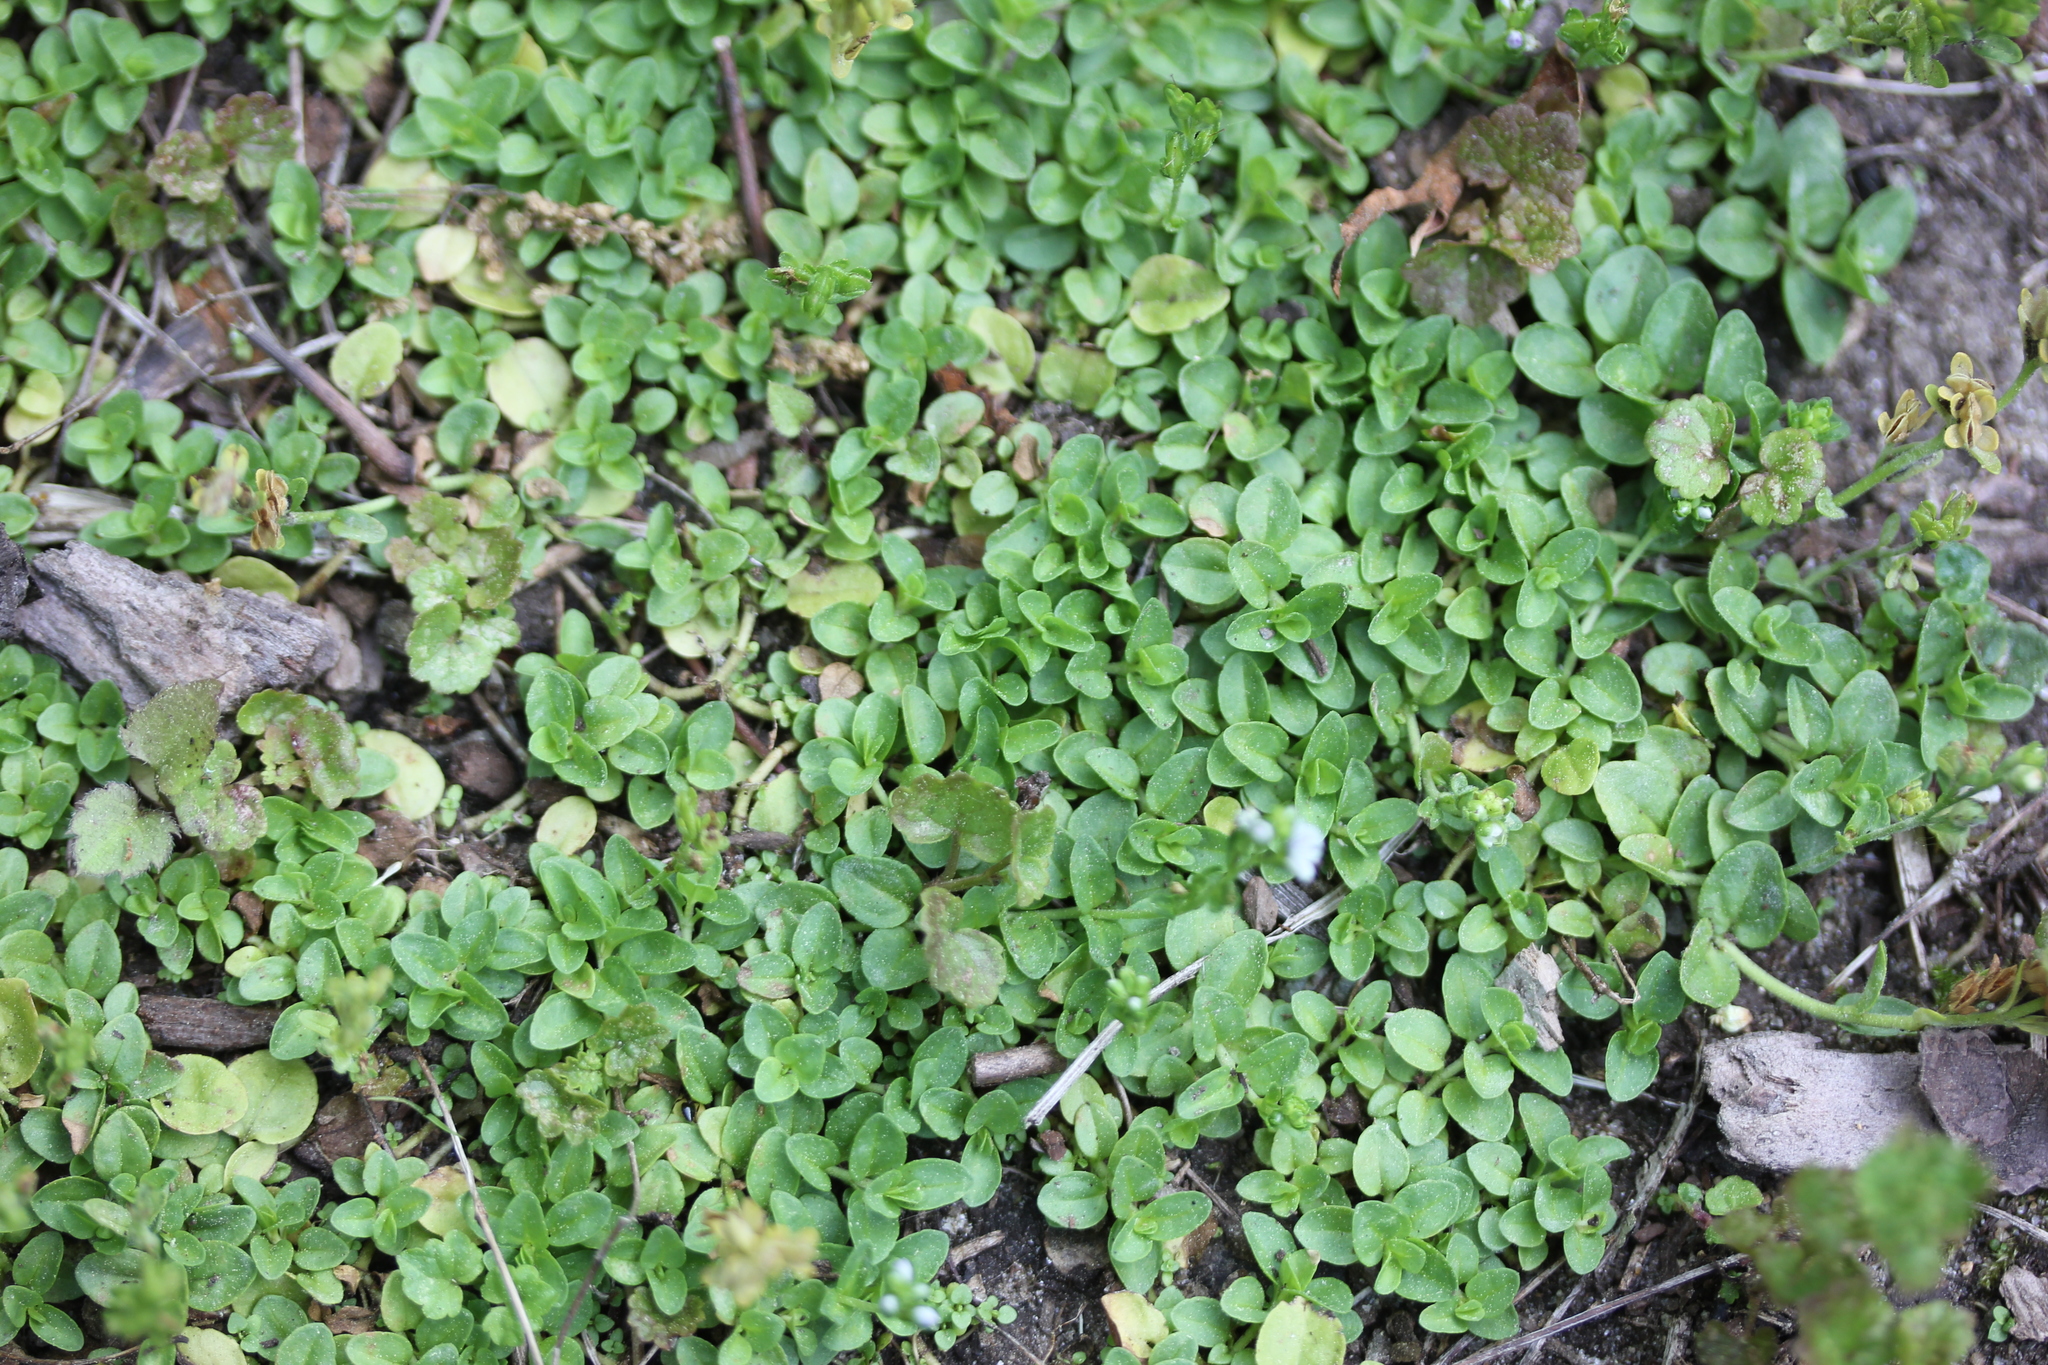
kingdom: Plantae
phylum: Tracheophyta
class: Magnoliopsida
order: Lamiales
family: Plantaginaceae
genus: Veronica
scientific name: Veronica serpyllifolia
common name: Thyme-leaved speedwell
